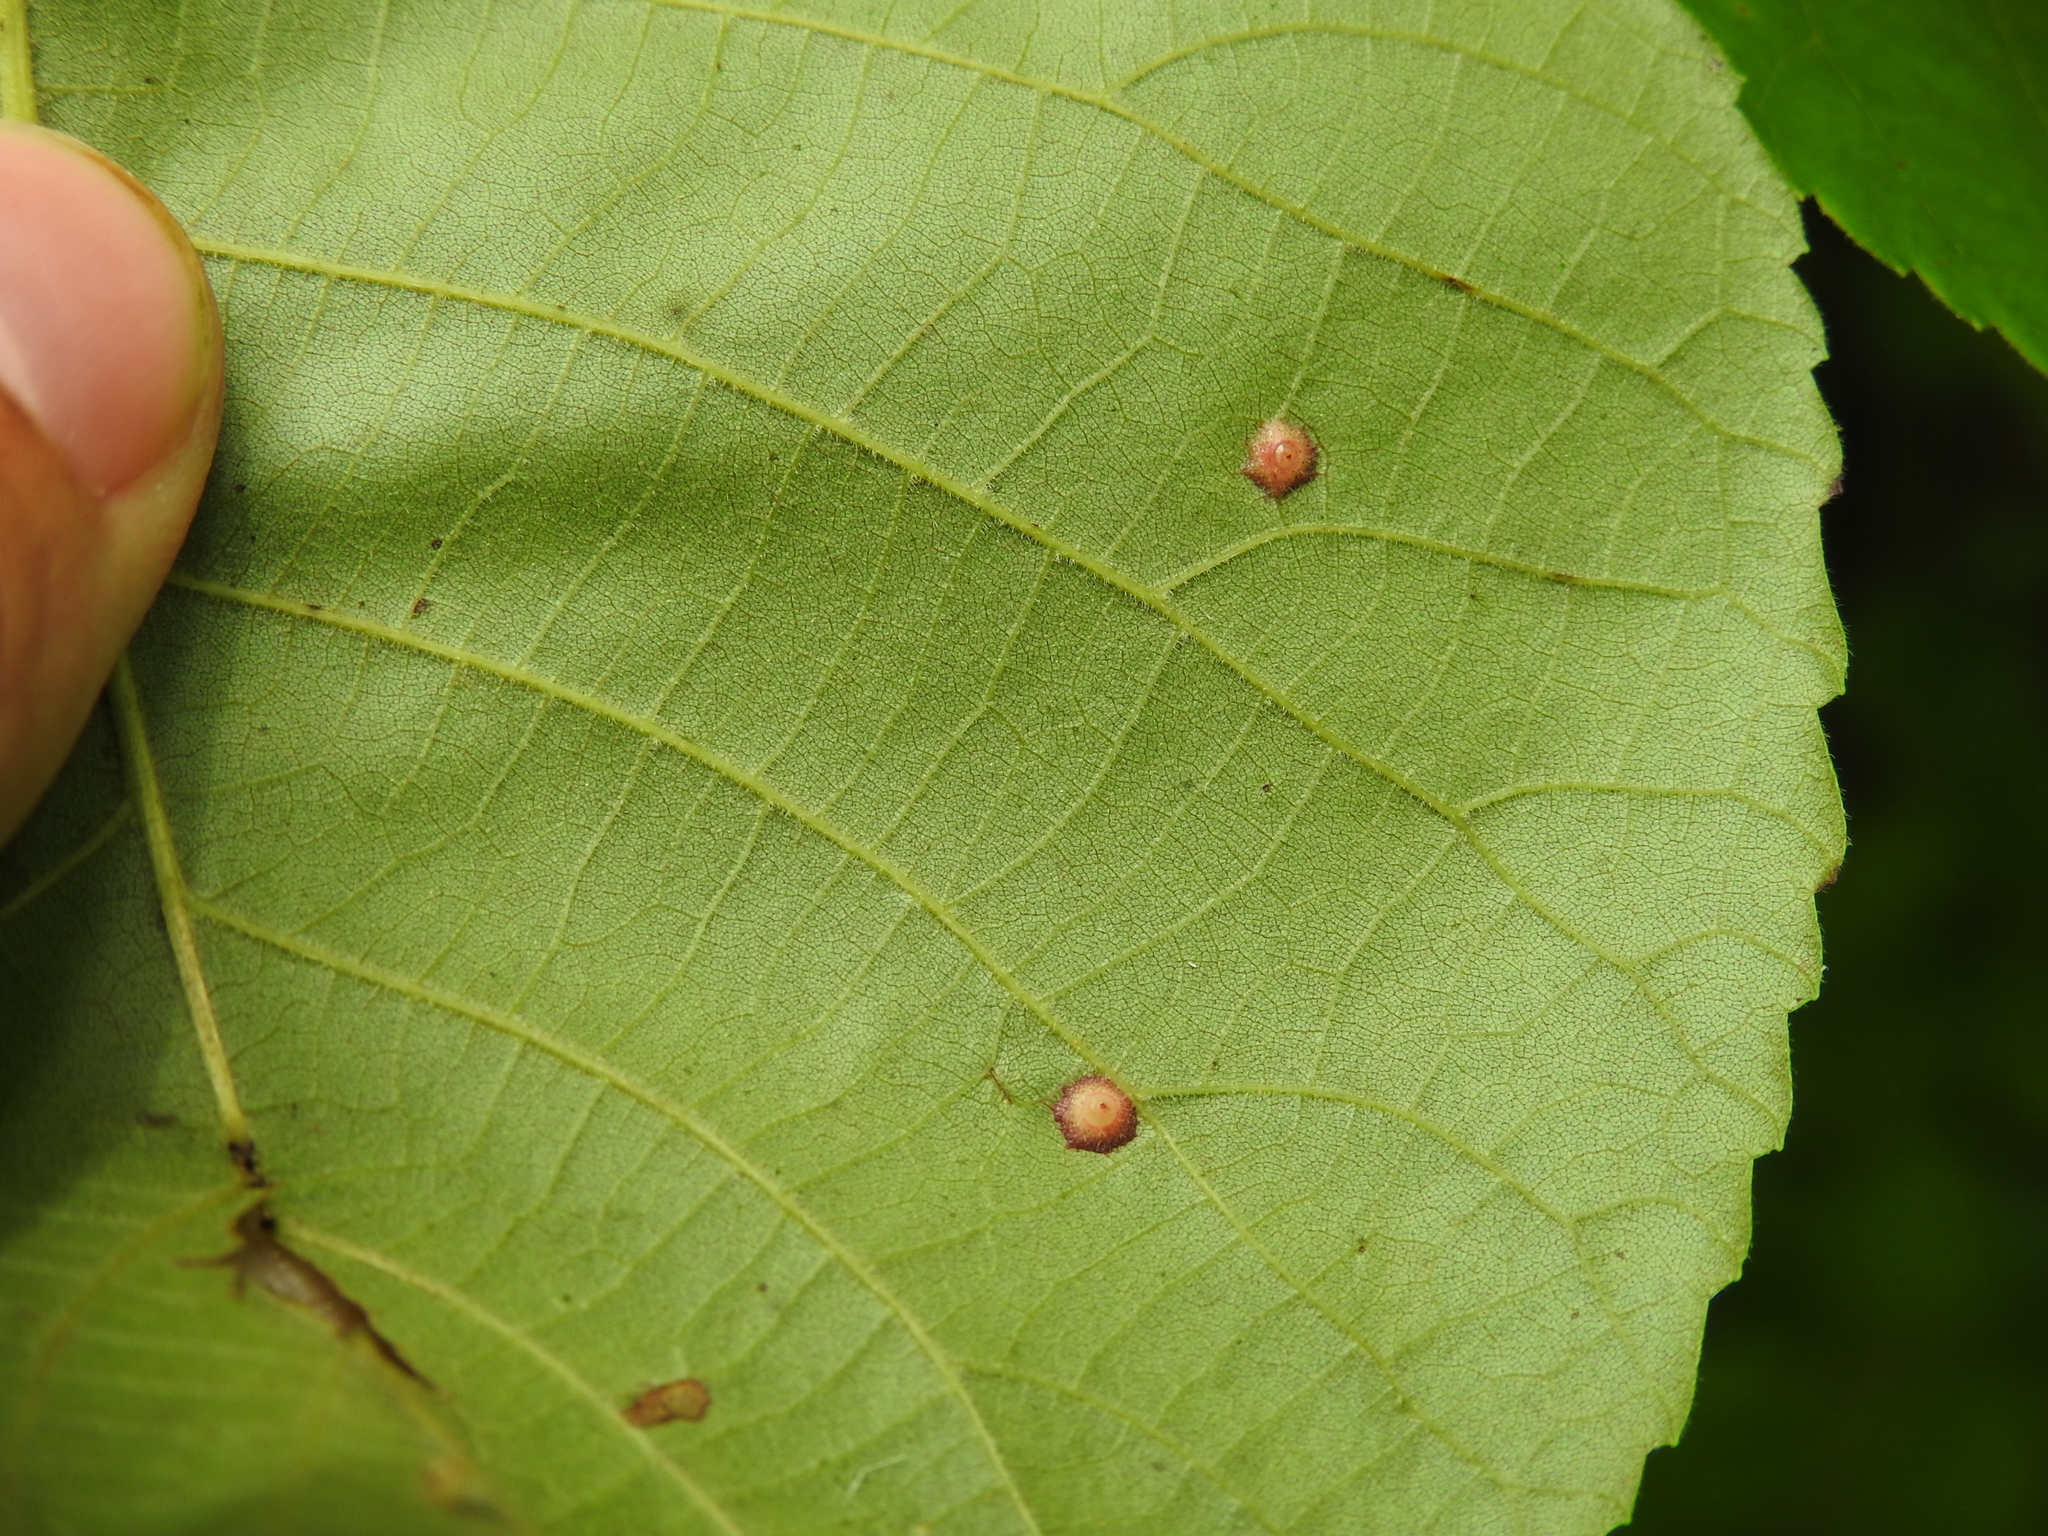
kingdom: Animalia
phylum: Arthropoda
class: Insecta
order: Diptera
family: Cecidomyiidae
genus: Caryomyia
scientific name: Caryomyia tubicola
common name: Hickory bullet gall midge
